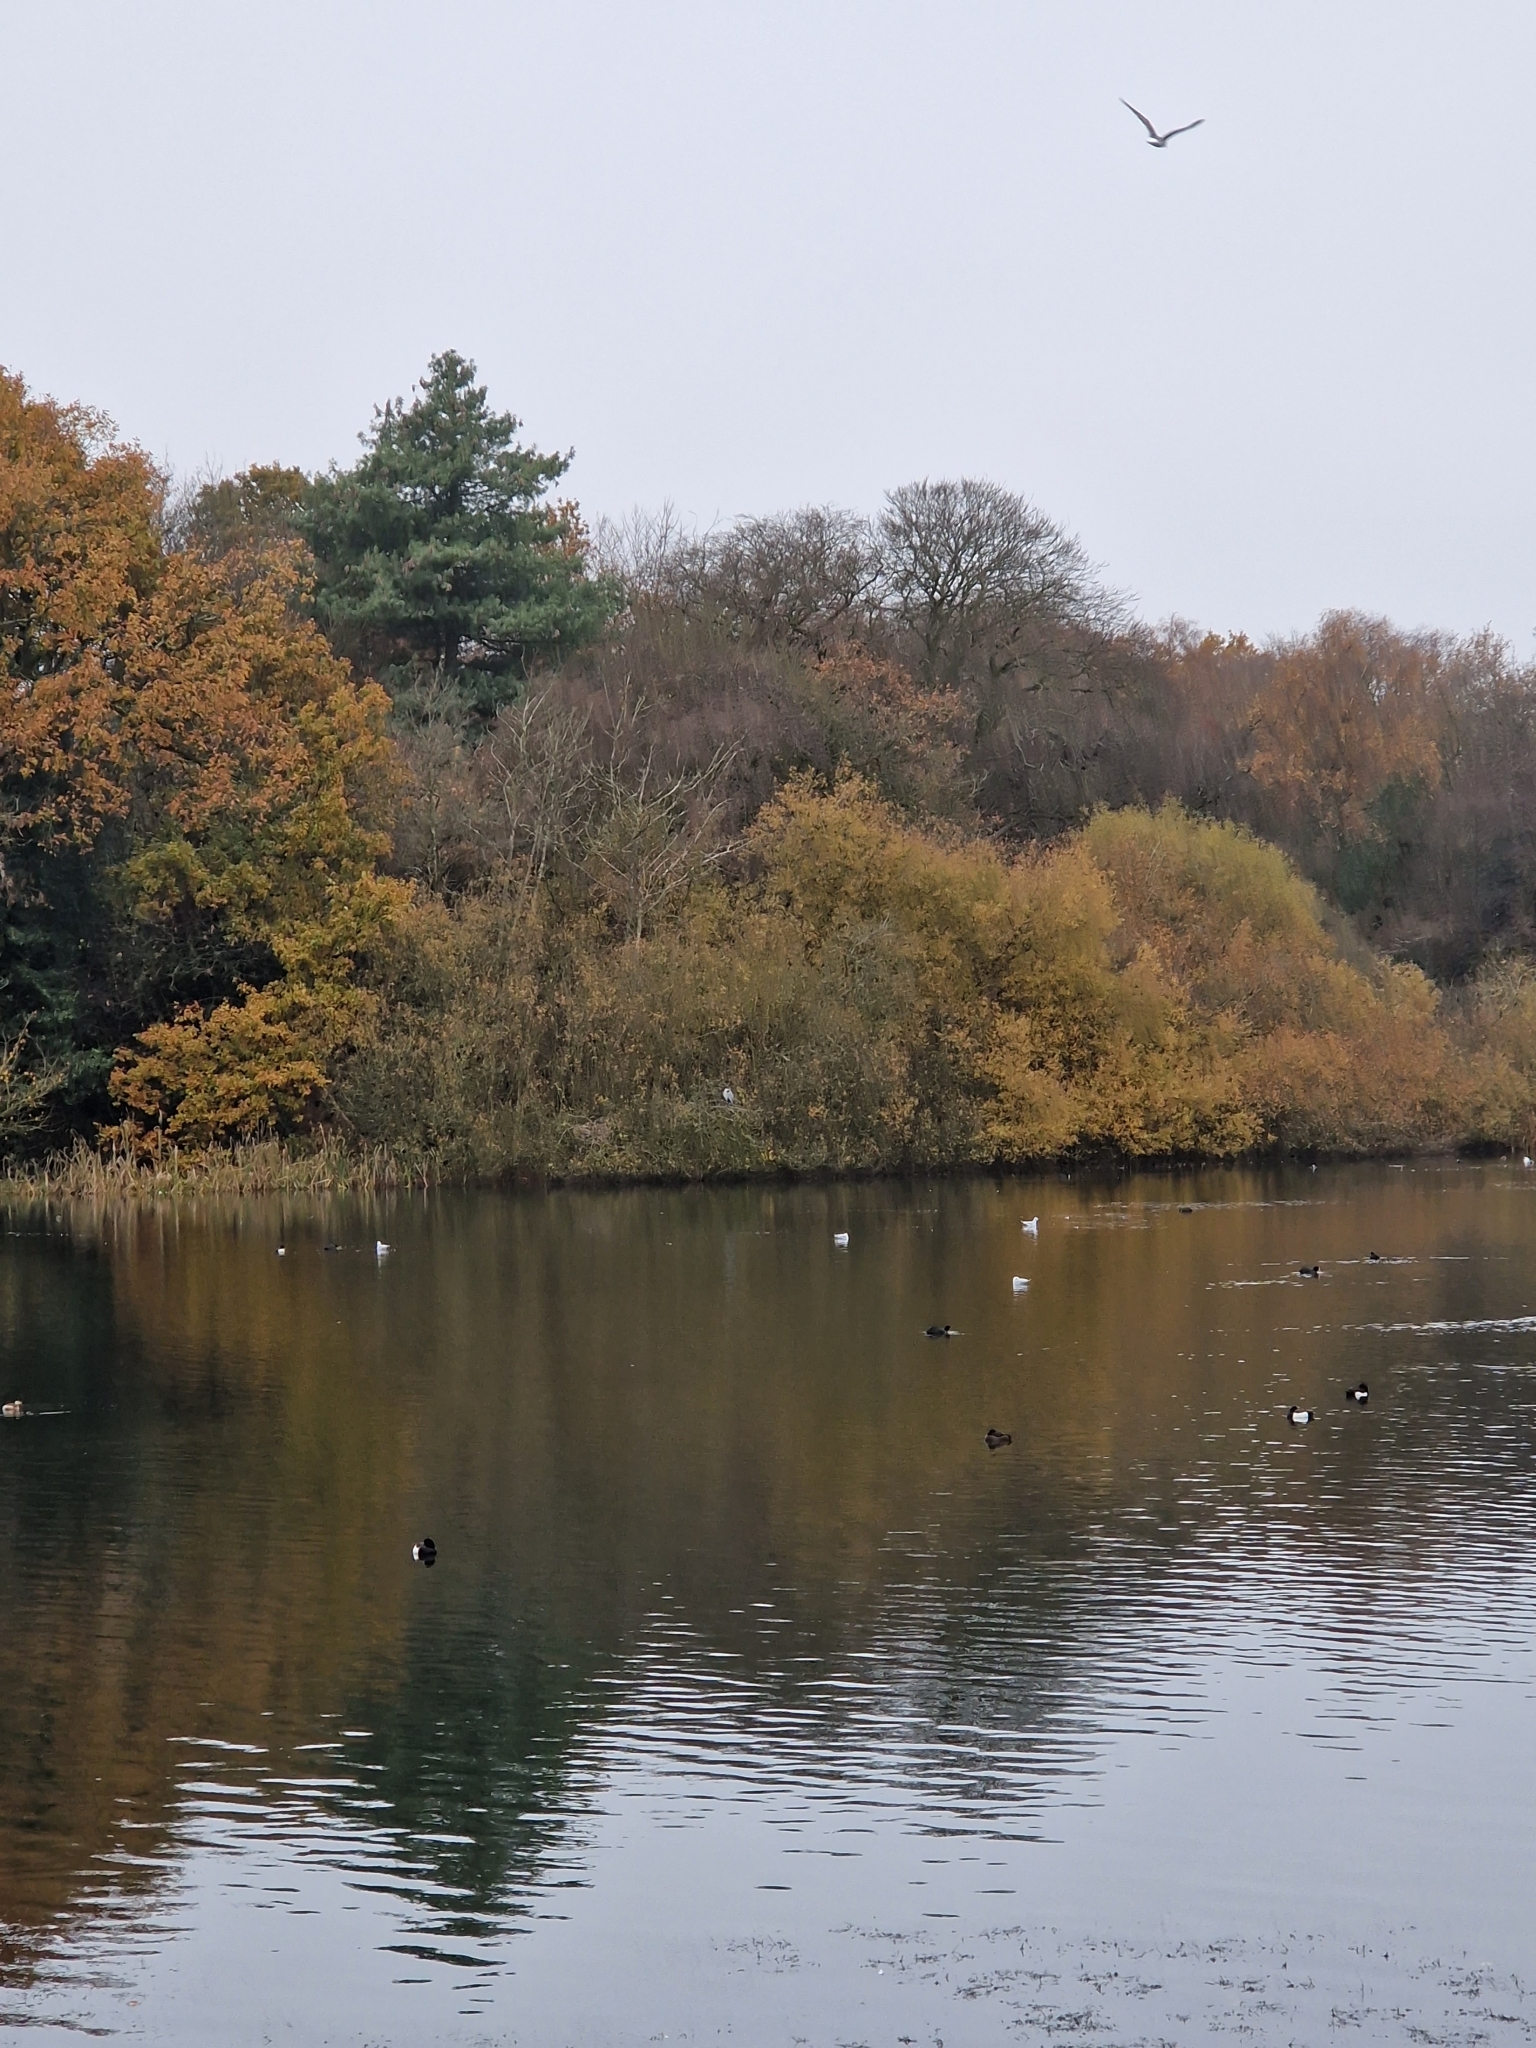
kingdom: Animalia
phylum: Chordata
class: Aves
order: Pelecaniformes
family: Ardeidae
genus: Ardea
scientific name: Ardea cinerea
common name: Grey heron
